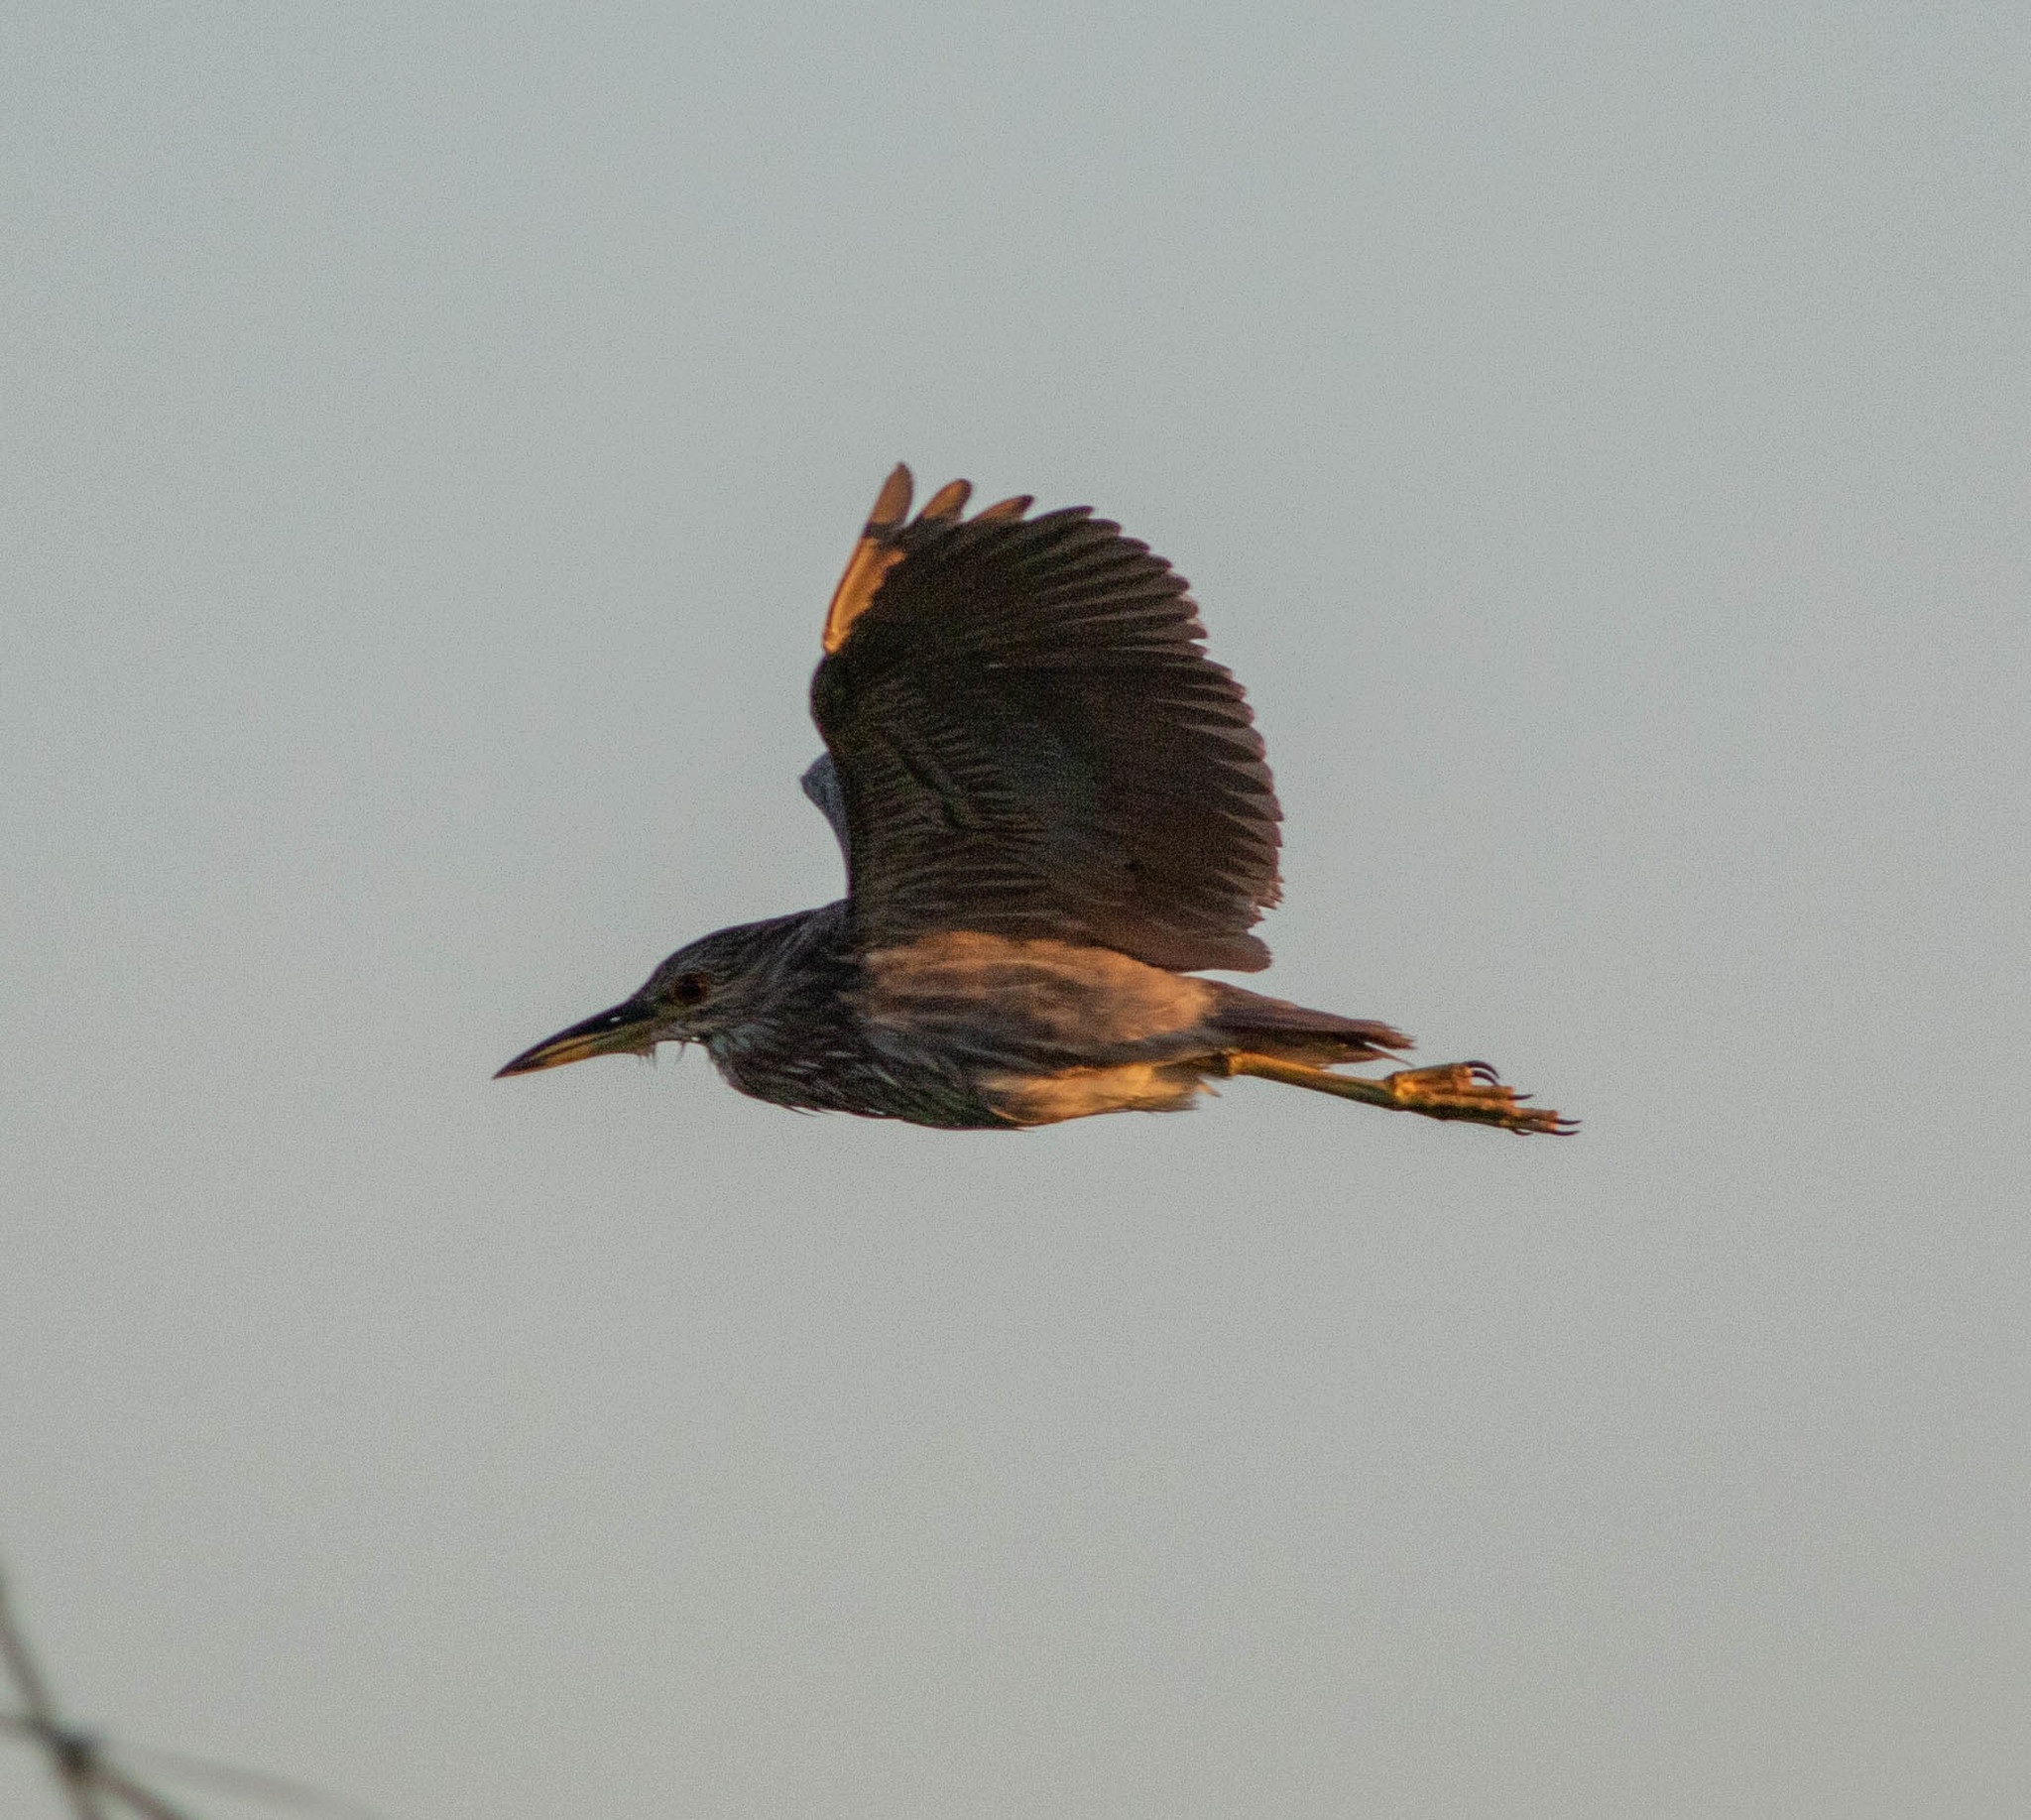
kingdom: Animalia
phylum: Chordata
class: Aves
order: Pelecaniformes
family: Ardeidae
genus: Nycticorax
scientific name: Nycticorax nycticorax
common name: Black-crowned night heron
